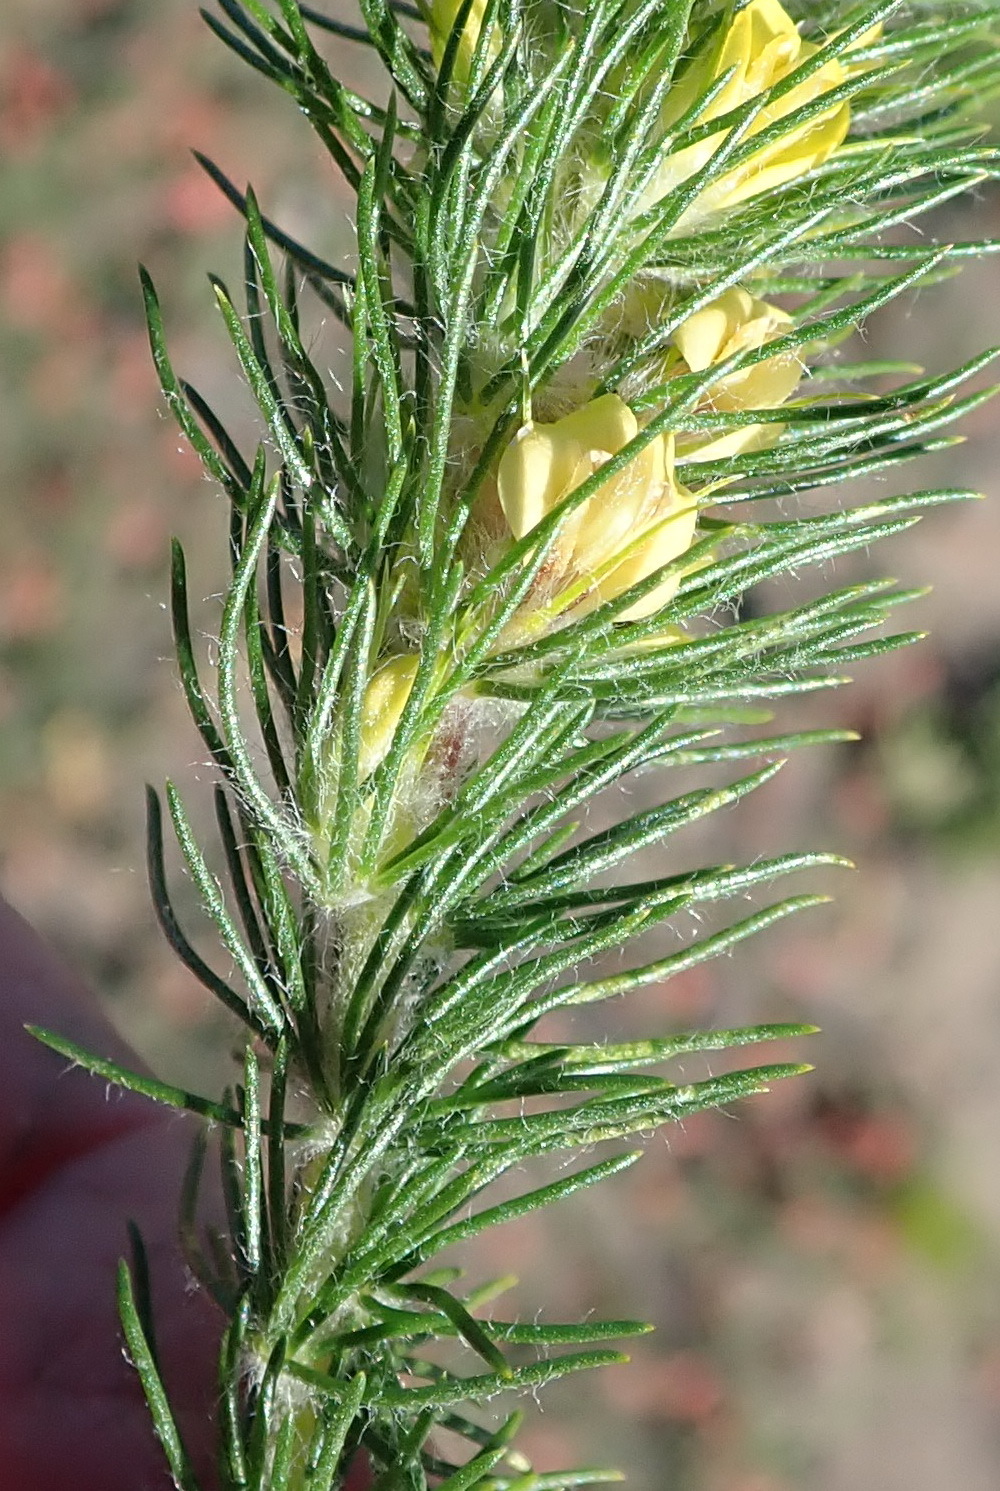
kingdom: Plantae
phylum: Tracheophyta
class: Magnoliopsida
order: Fabales
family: Fabaceae
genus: Aspalathus
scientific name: Aspalathus alopecurus
